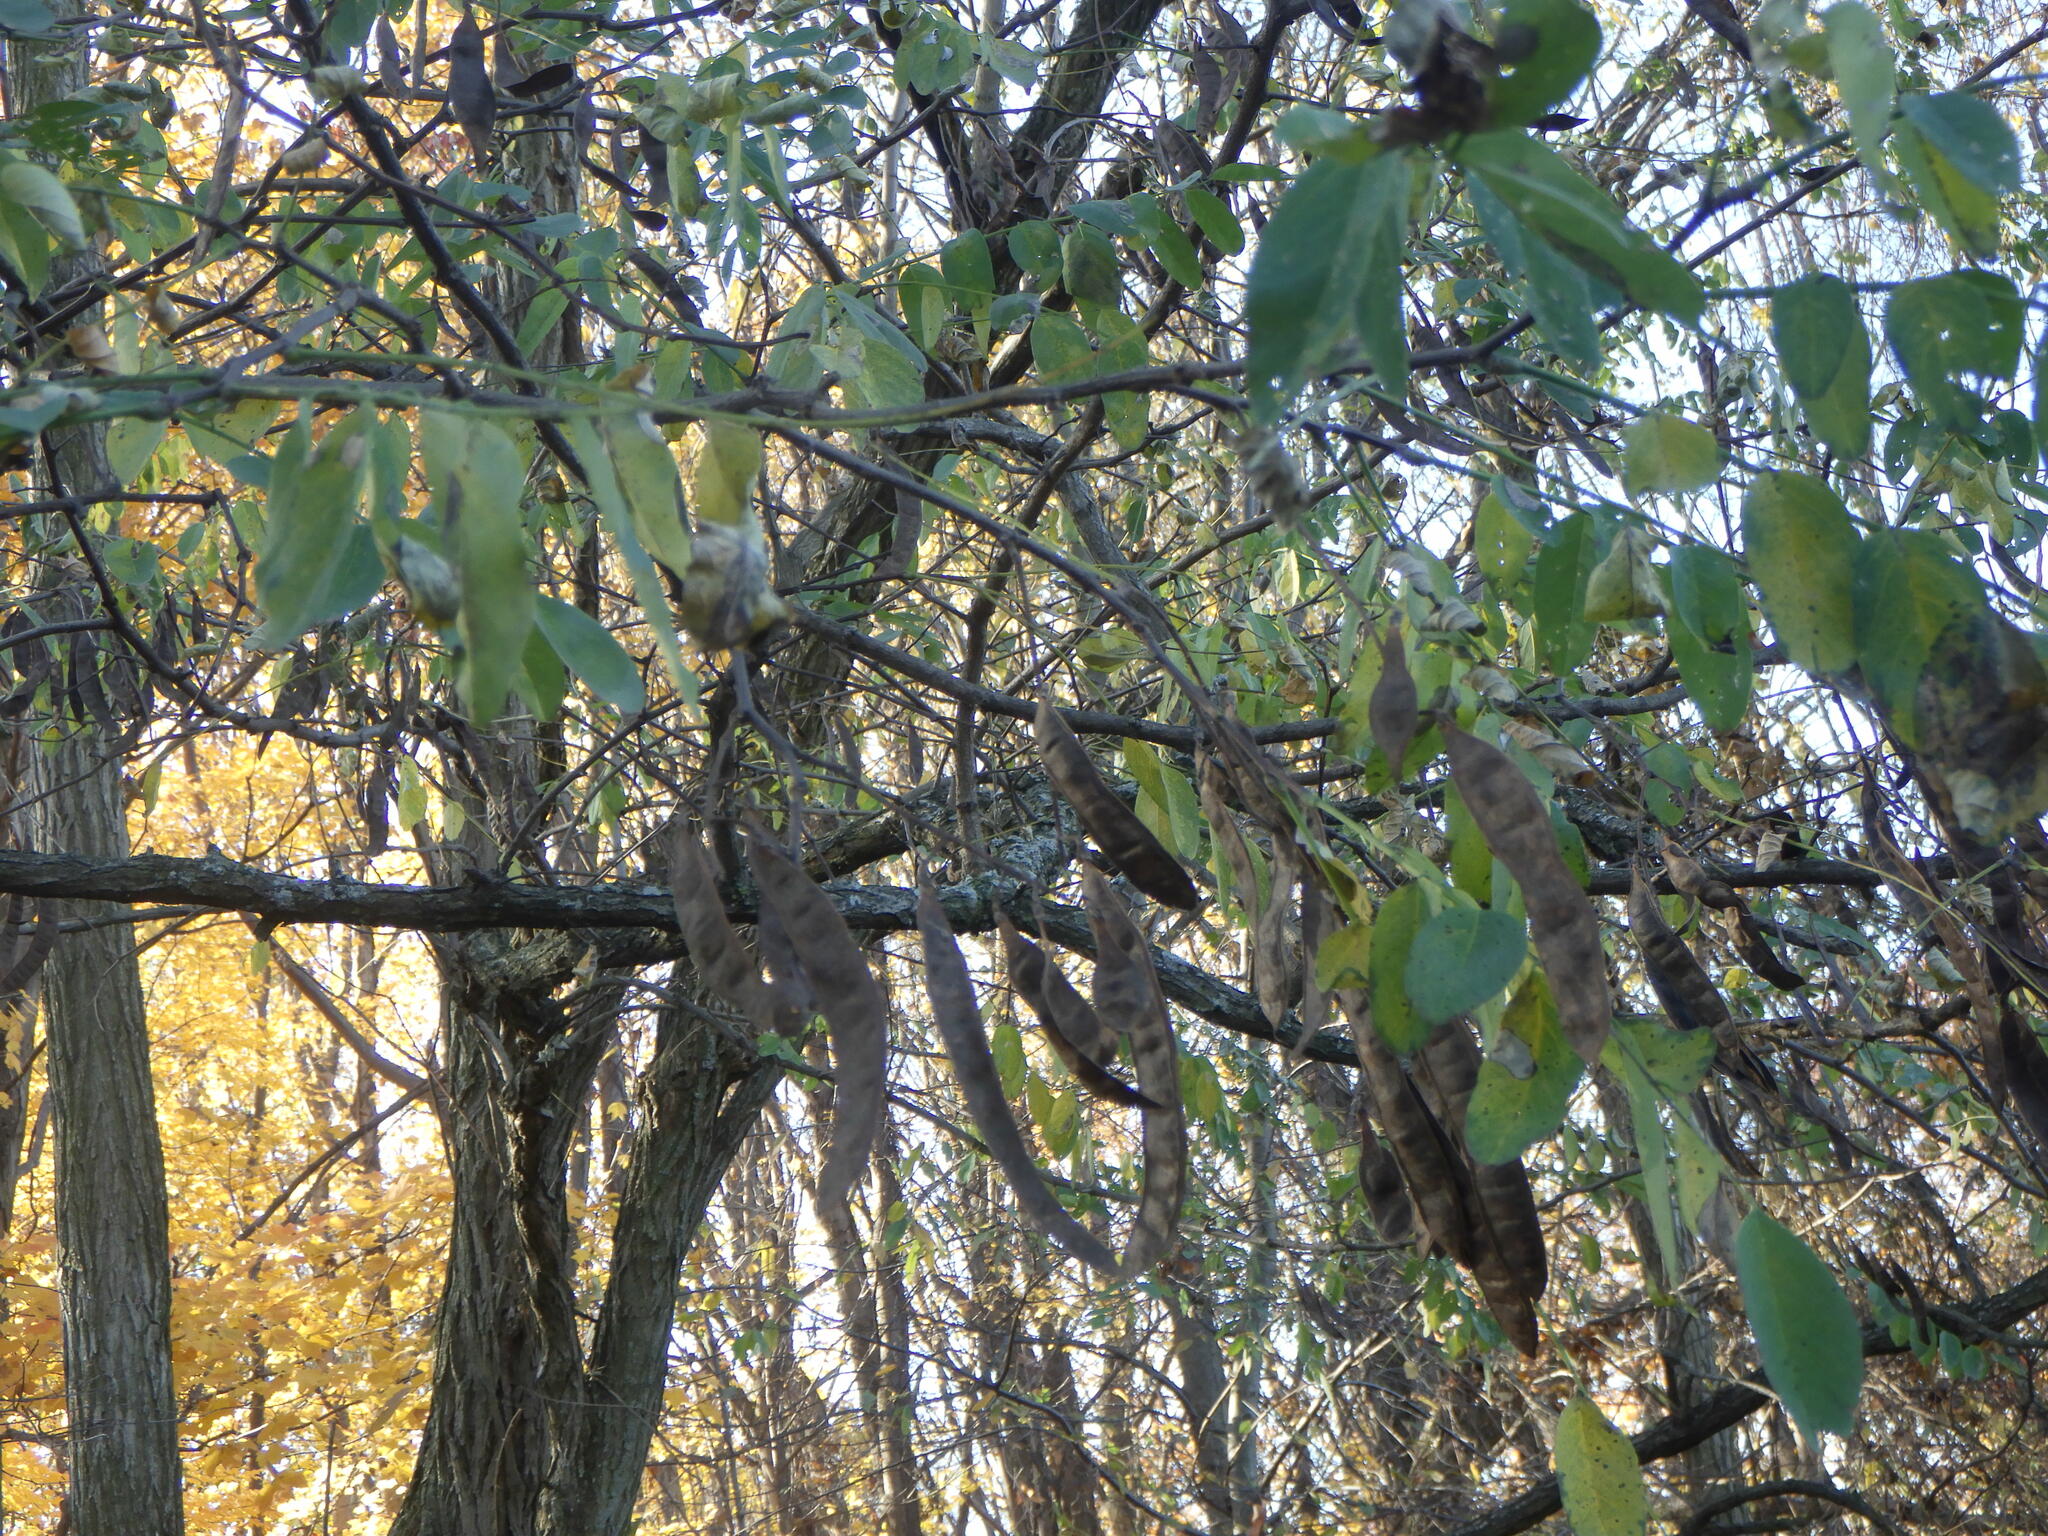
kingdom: Plantae
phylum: Tracheophyta
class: Magnoliopsida
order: Fabales
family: Fabaceae
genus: Robinia
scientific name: Robinia pseudoacacia
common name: Black locust
